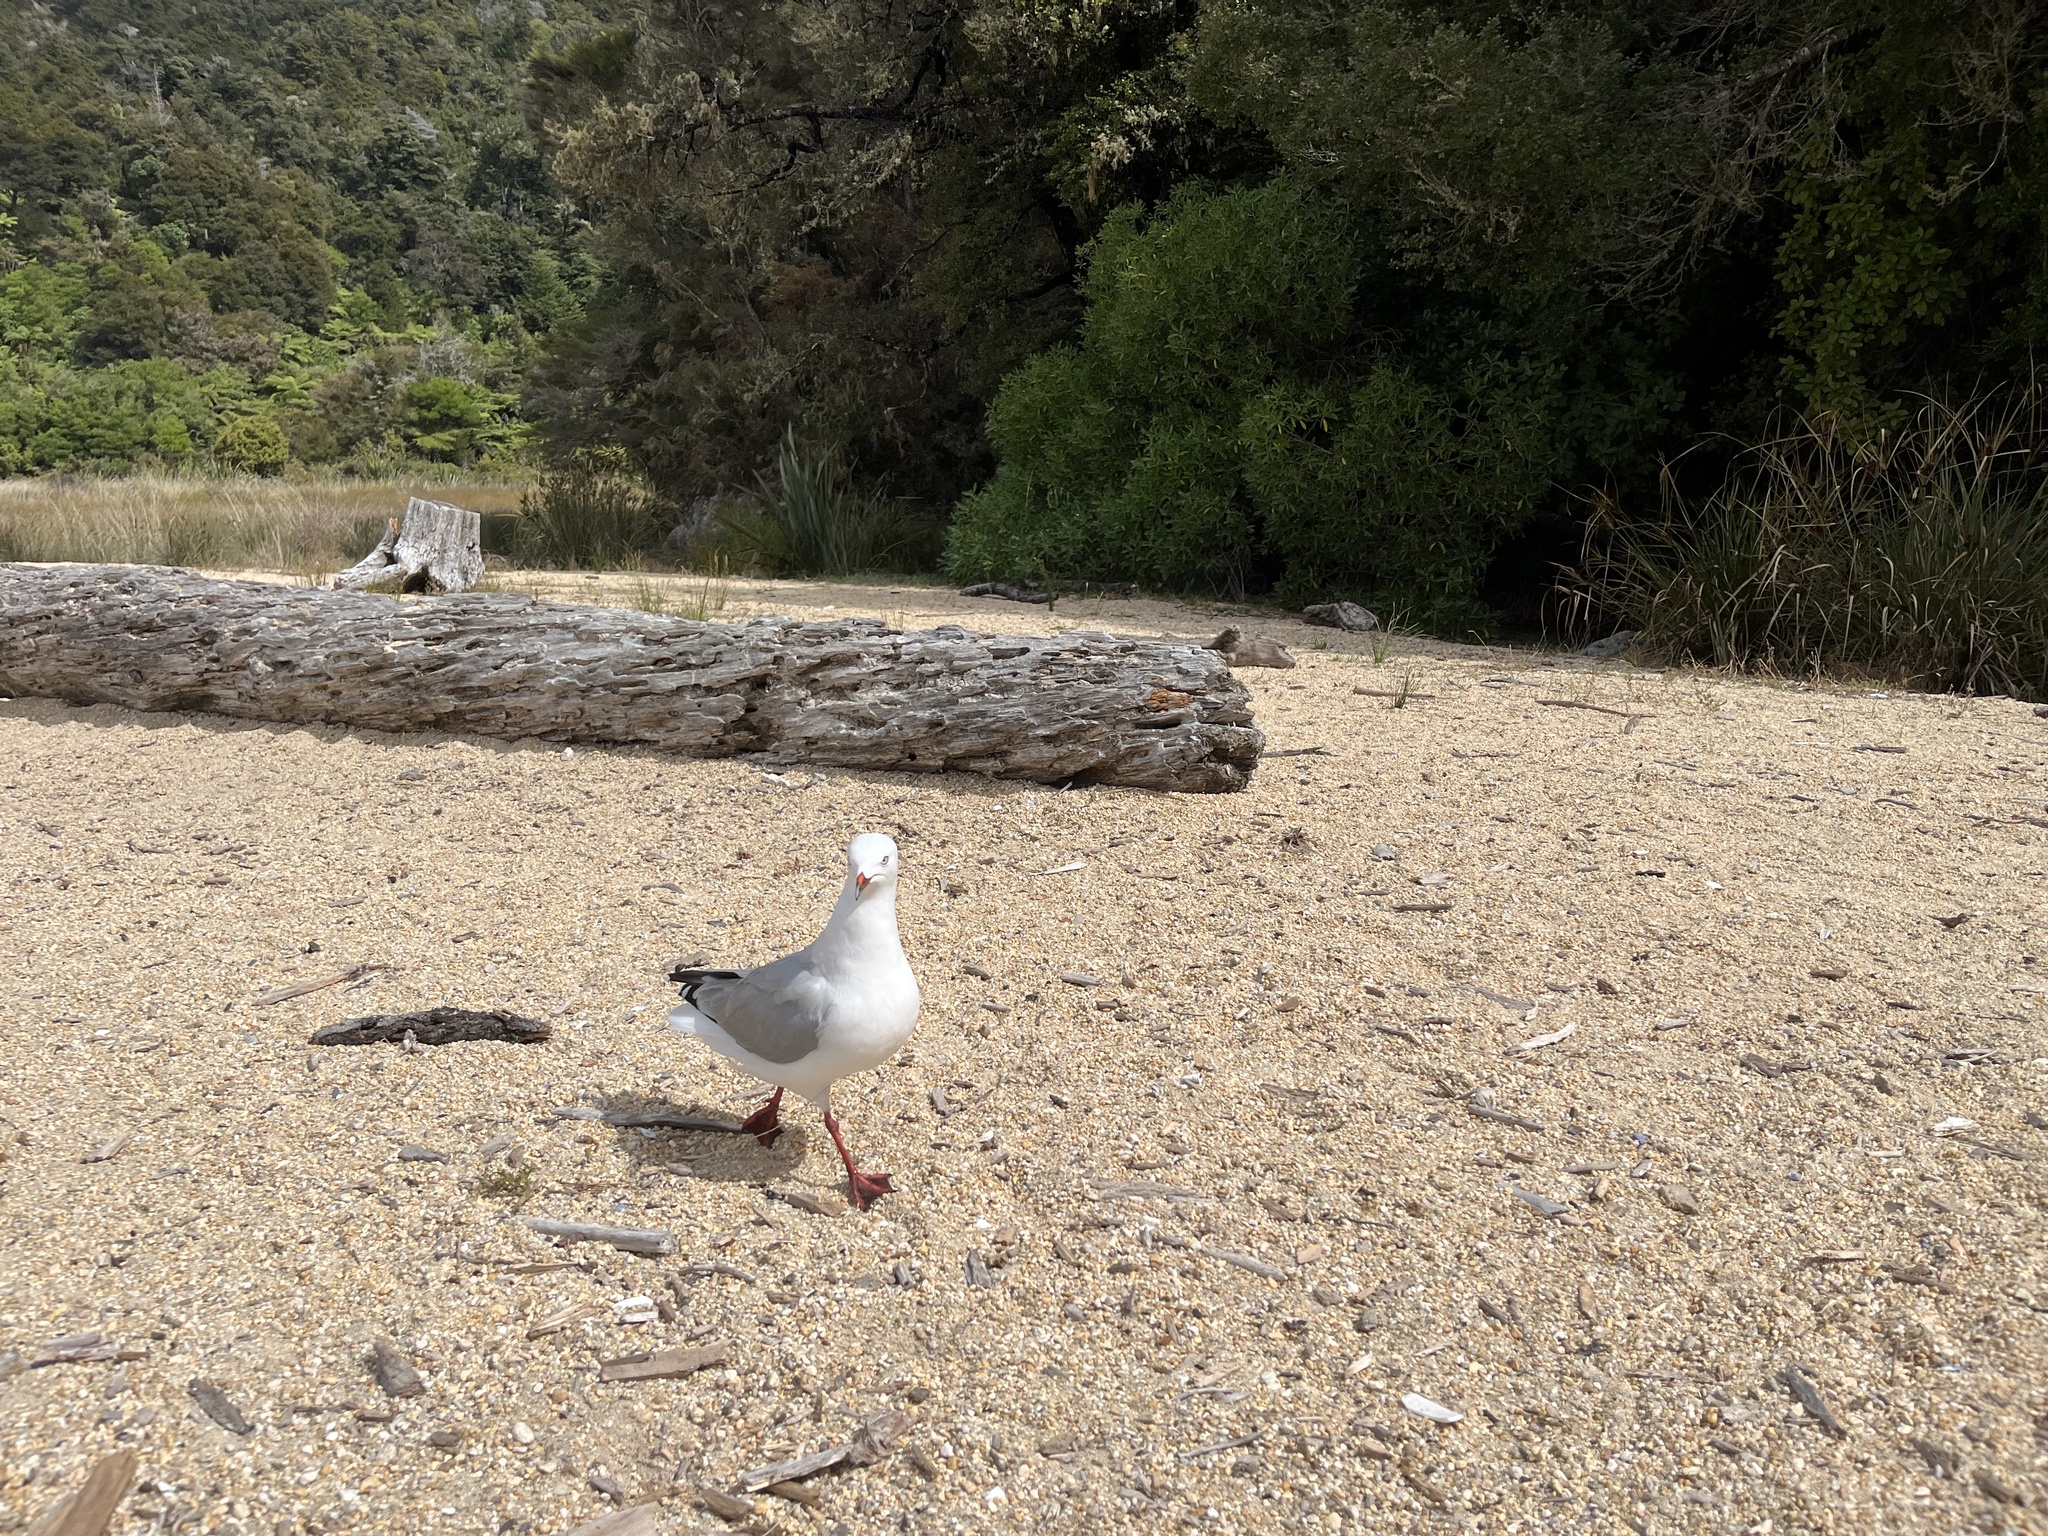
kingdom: Animalia
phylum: Chordata
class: Aves
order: Charadriiformes
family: Laridae
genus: Chroicocephalus
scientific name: Chroicocephalus novaehollandiae
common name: Silver gull
